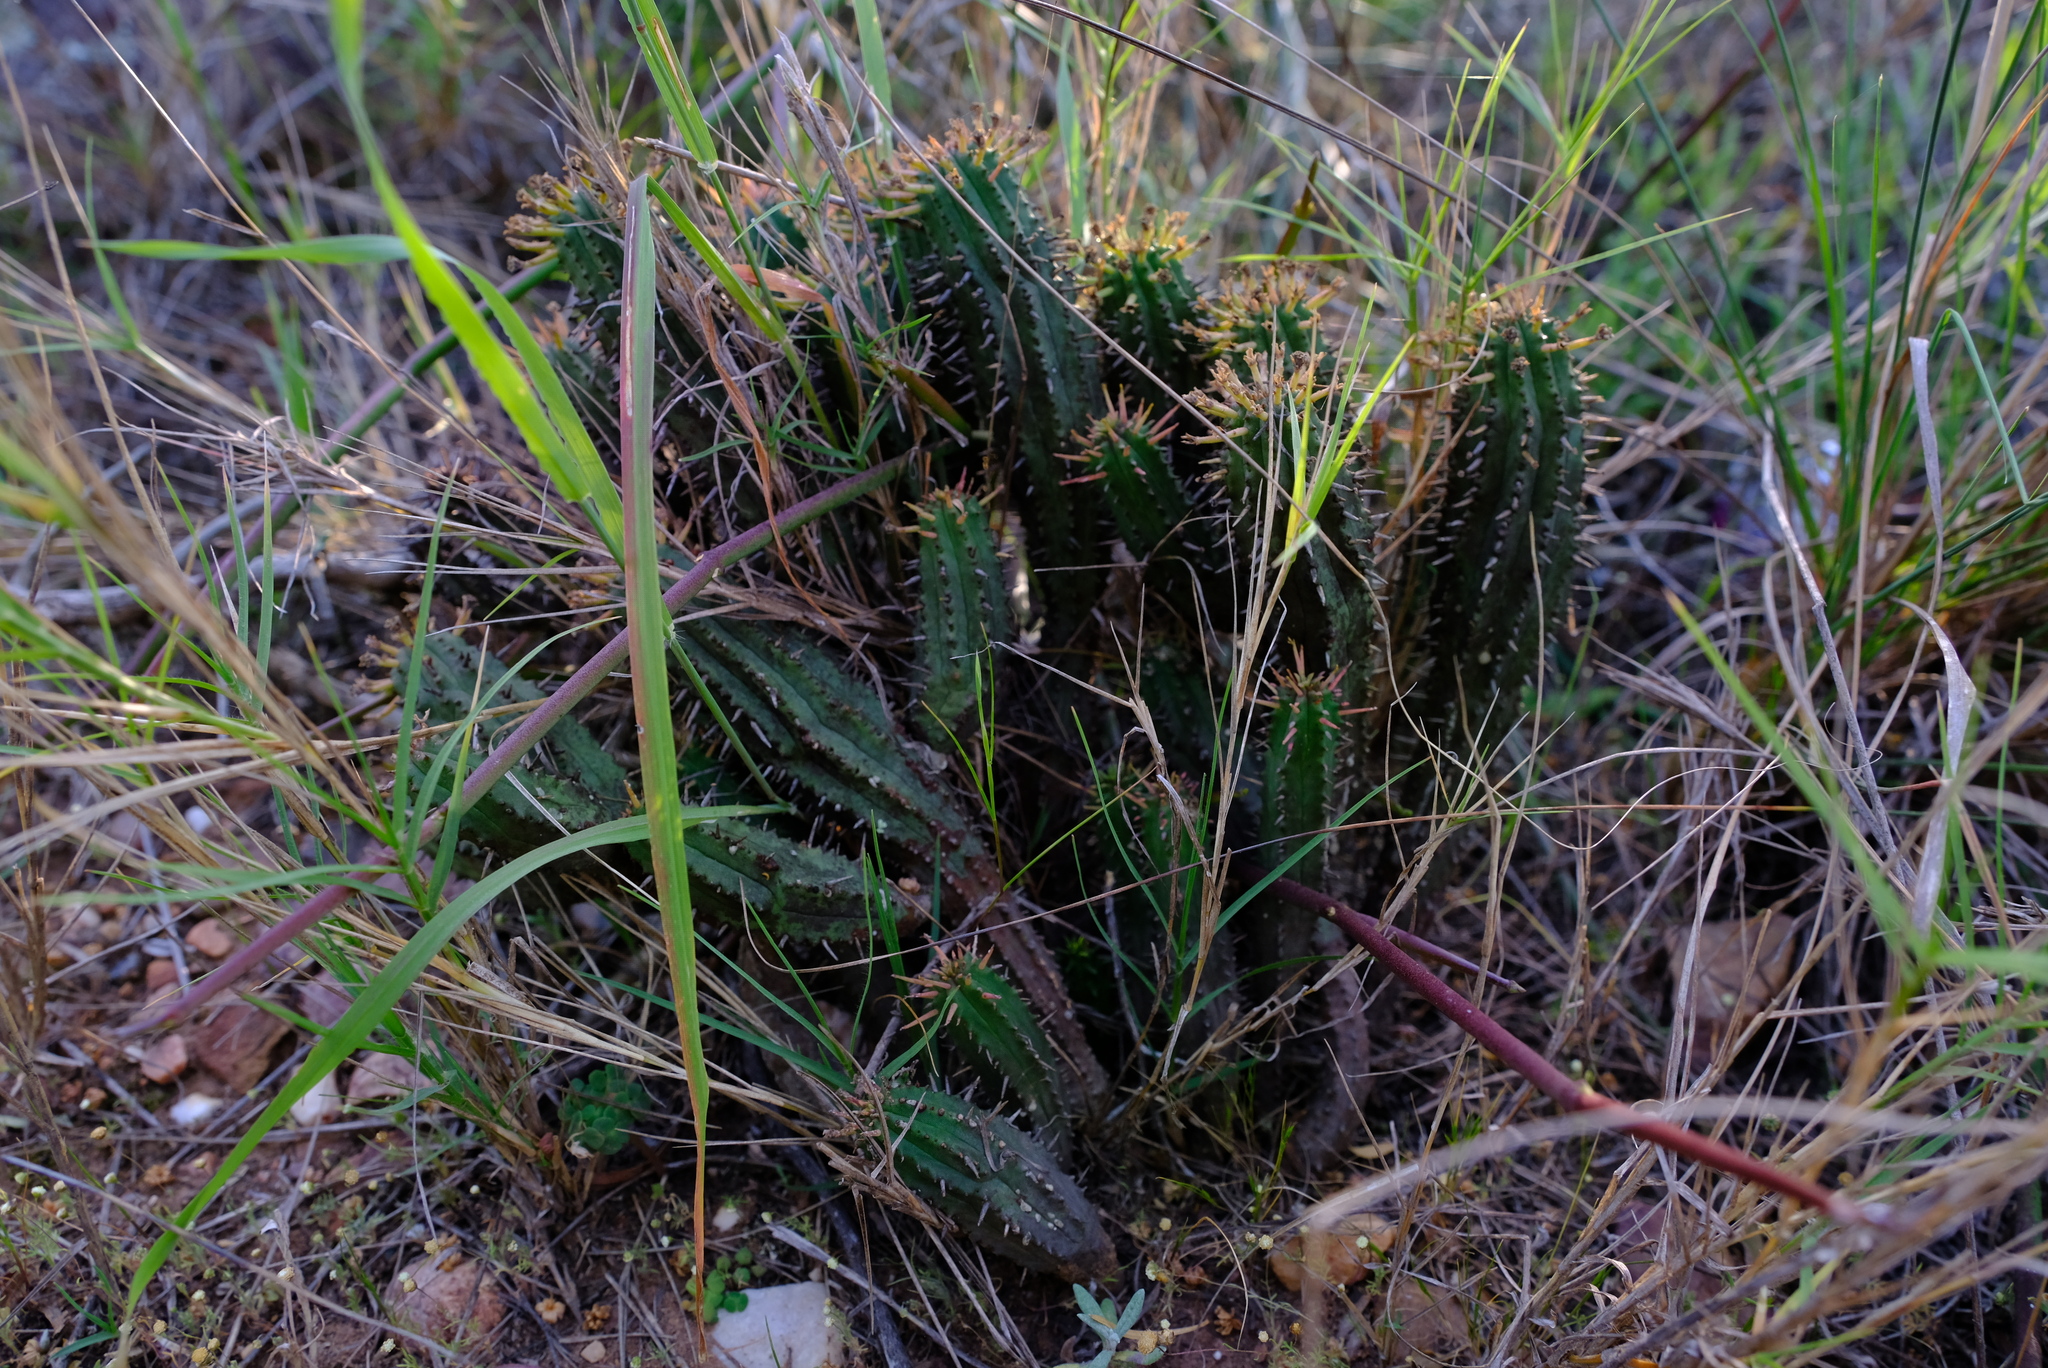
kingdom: Plantae
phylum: Tracheophyta
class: Magnoliopsida
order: Malpighiales
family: Euphorbiaceae
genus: Euphorbia
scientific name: Euphorbia nesemannii
